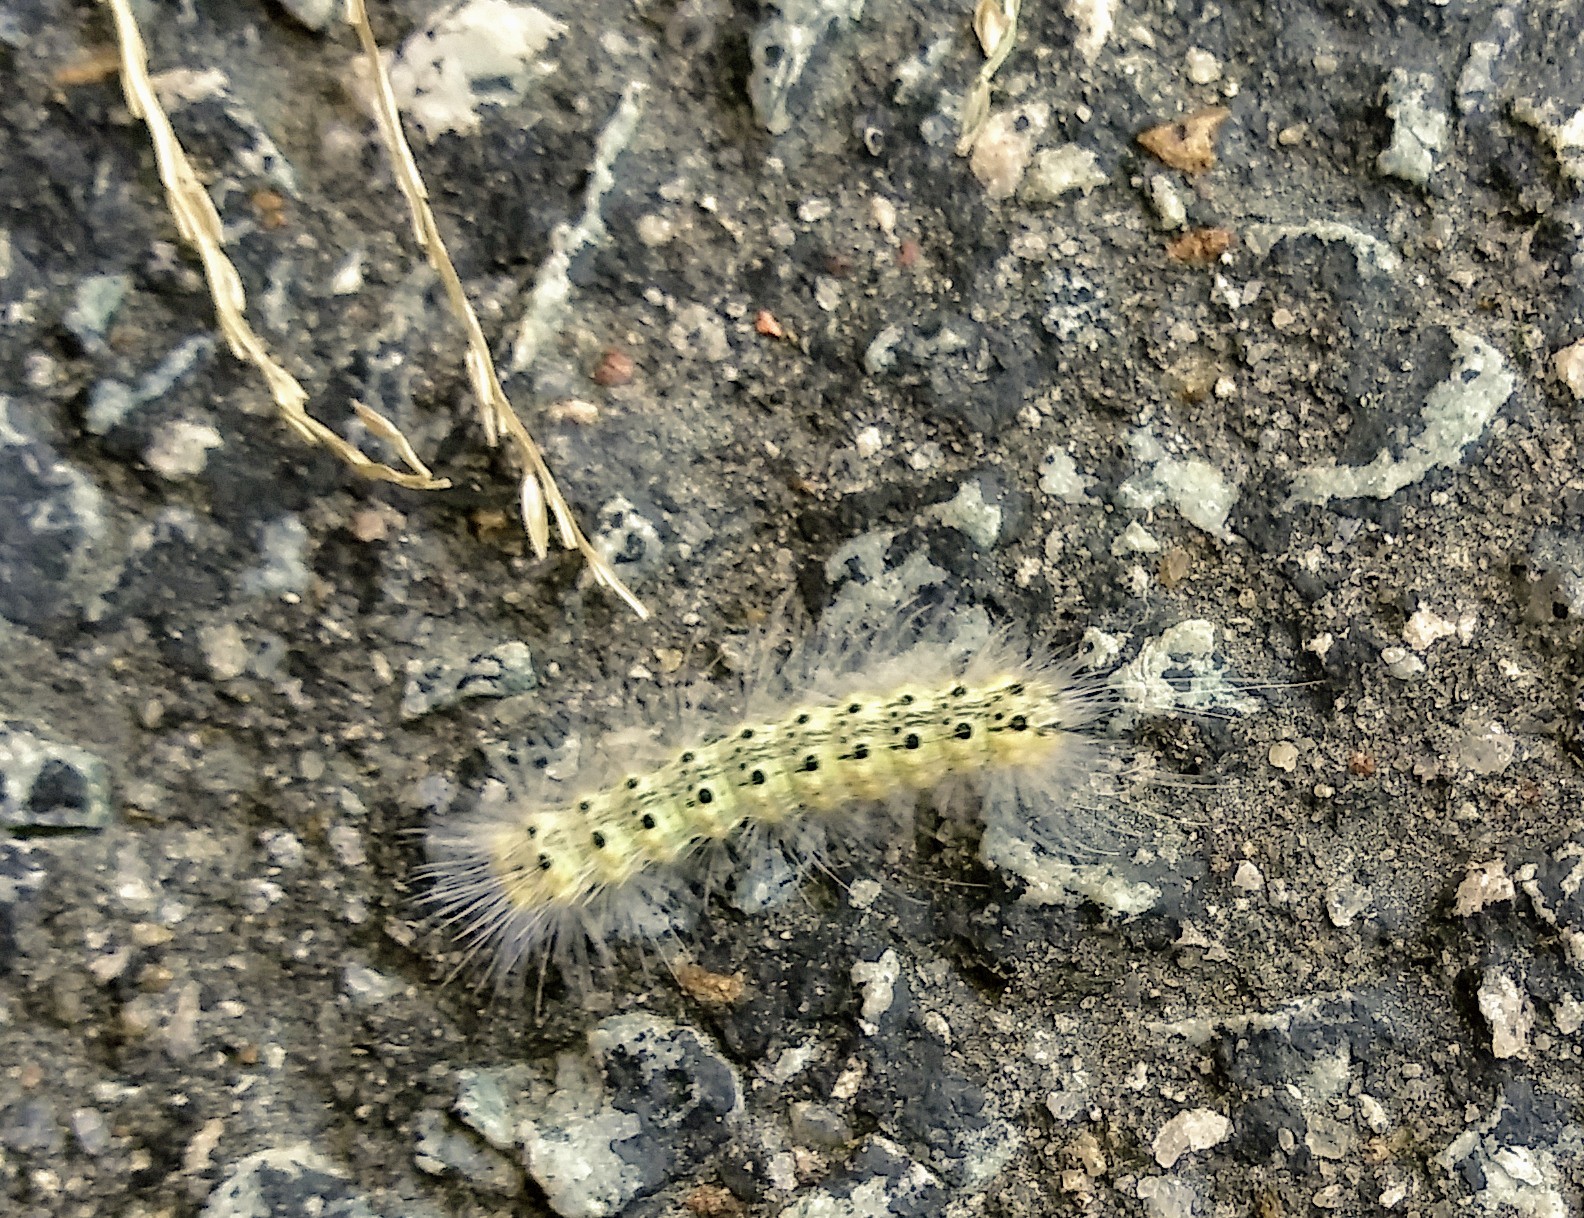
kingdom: Animalia
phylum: Arthropoda
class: Insecta
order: Lepidoptera
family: Erebidae
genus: Hyphantria
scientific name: Hyphantria cunea
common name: American white moth
